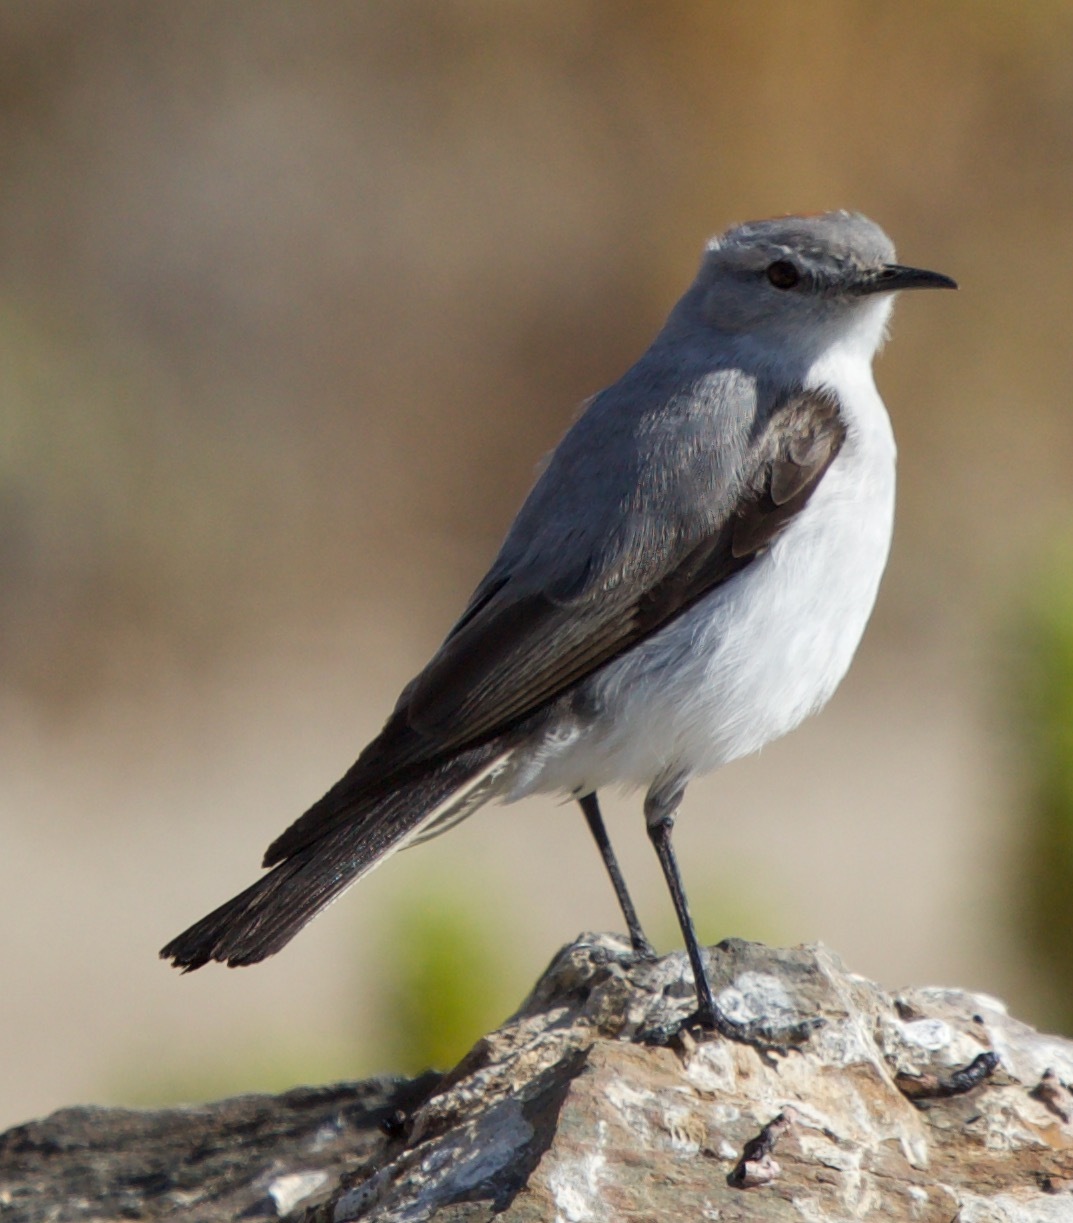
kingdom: Animalia
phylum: Chordata
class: Aves
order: Passeriformes
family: Tyrannidae
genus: Muscisaxicola
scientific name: Muscisaxicola rufivertex
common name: Rufous-naped ground tyrant
